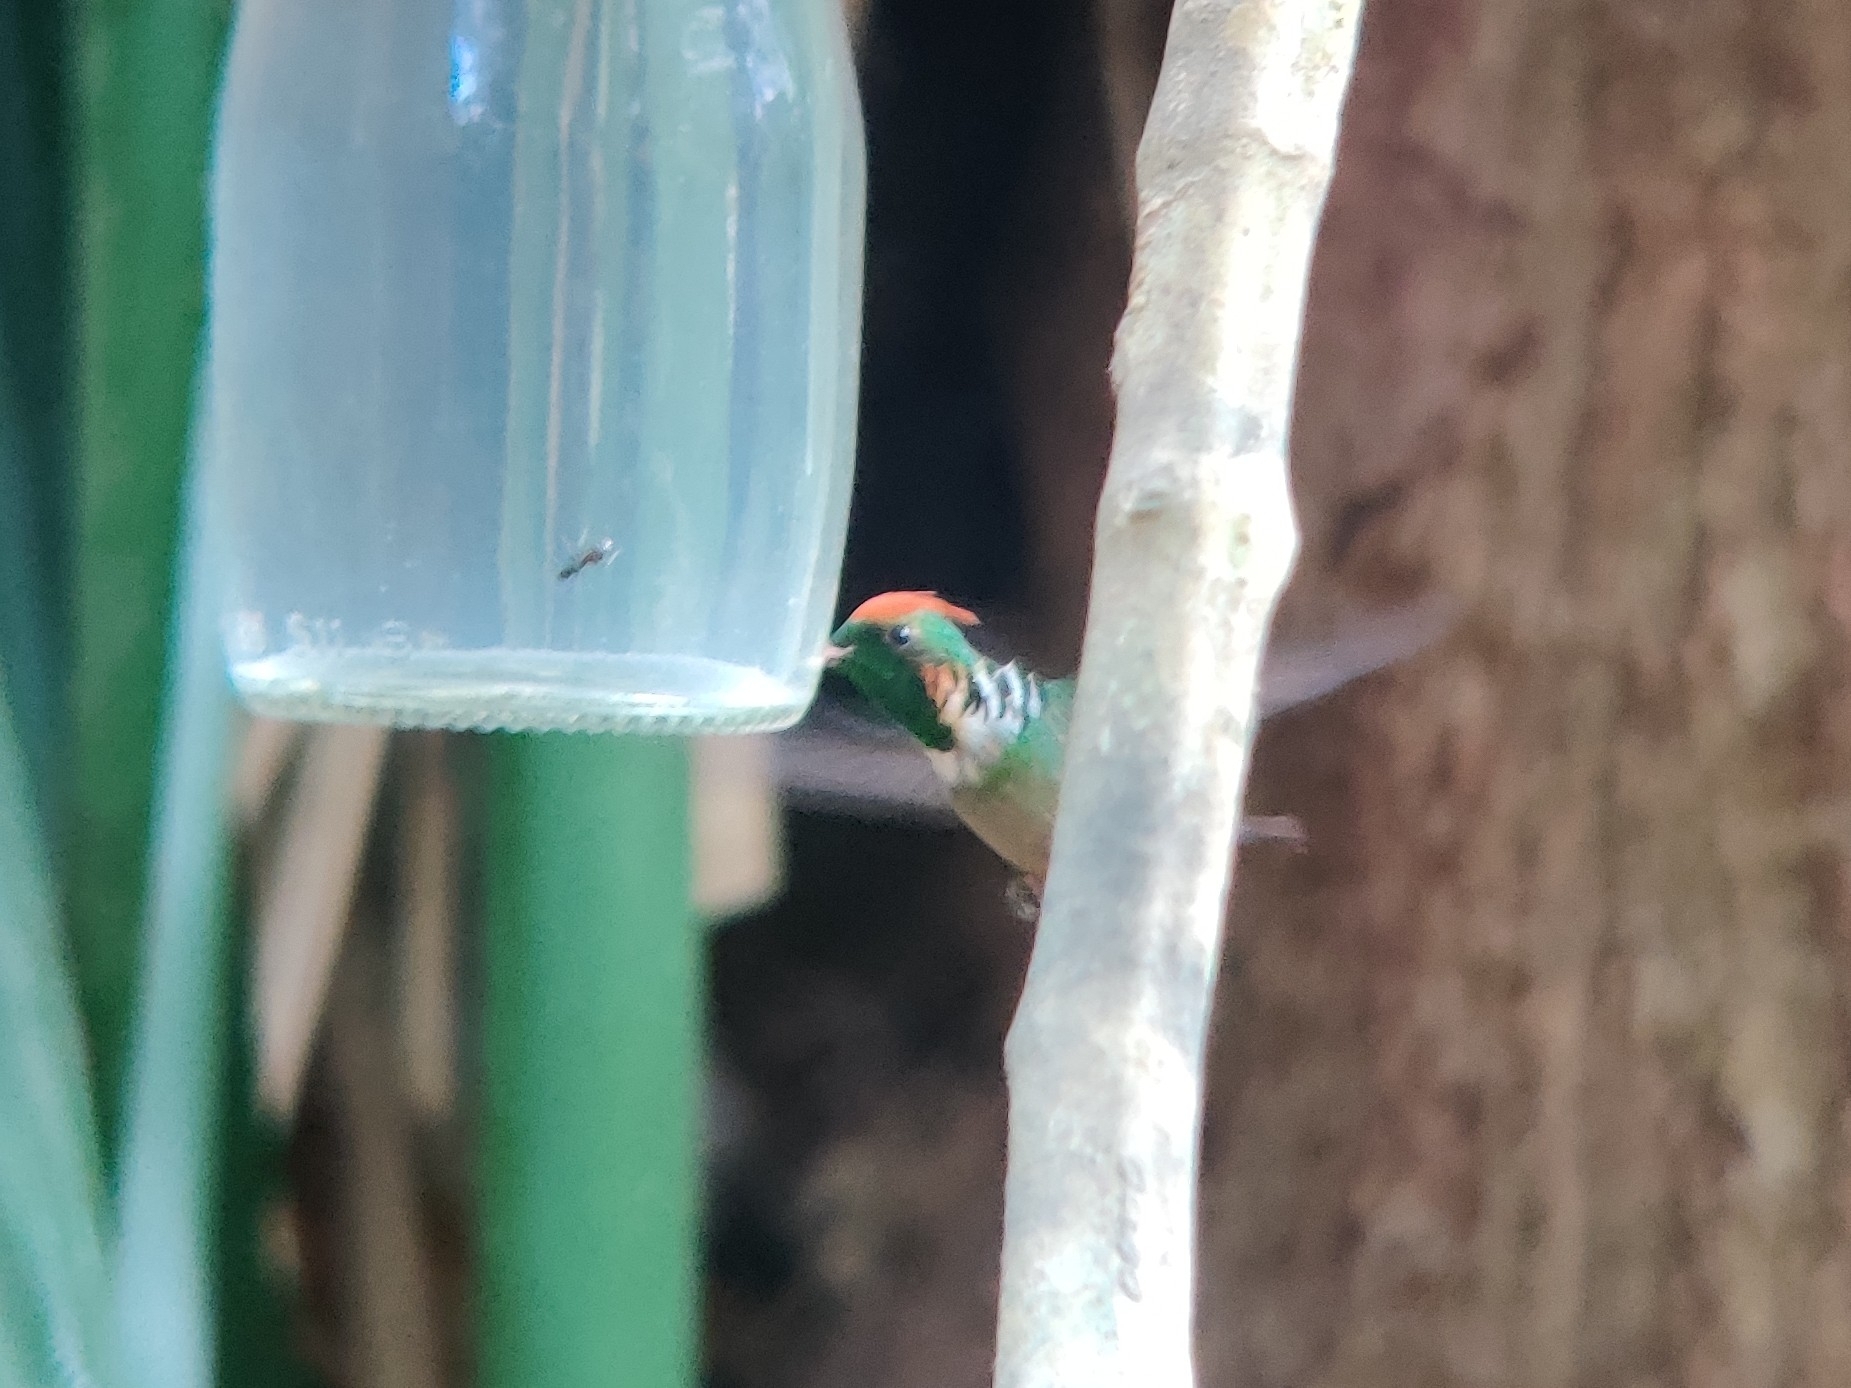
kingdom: Animalia
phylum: Chordata
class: Aves
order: Apodiformes
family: Trochilidae
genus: Lophornis
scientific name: Lophornis magnificus
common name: Frilled coquette
